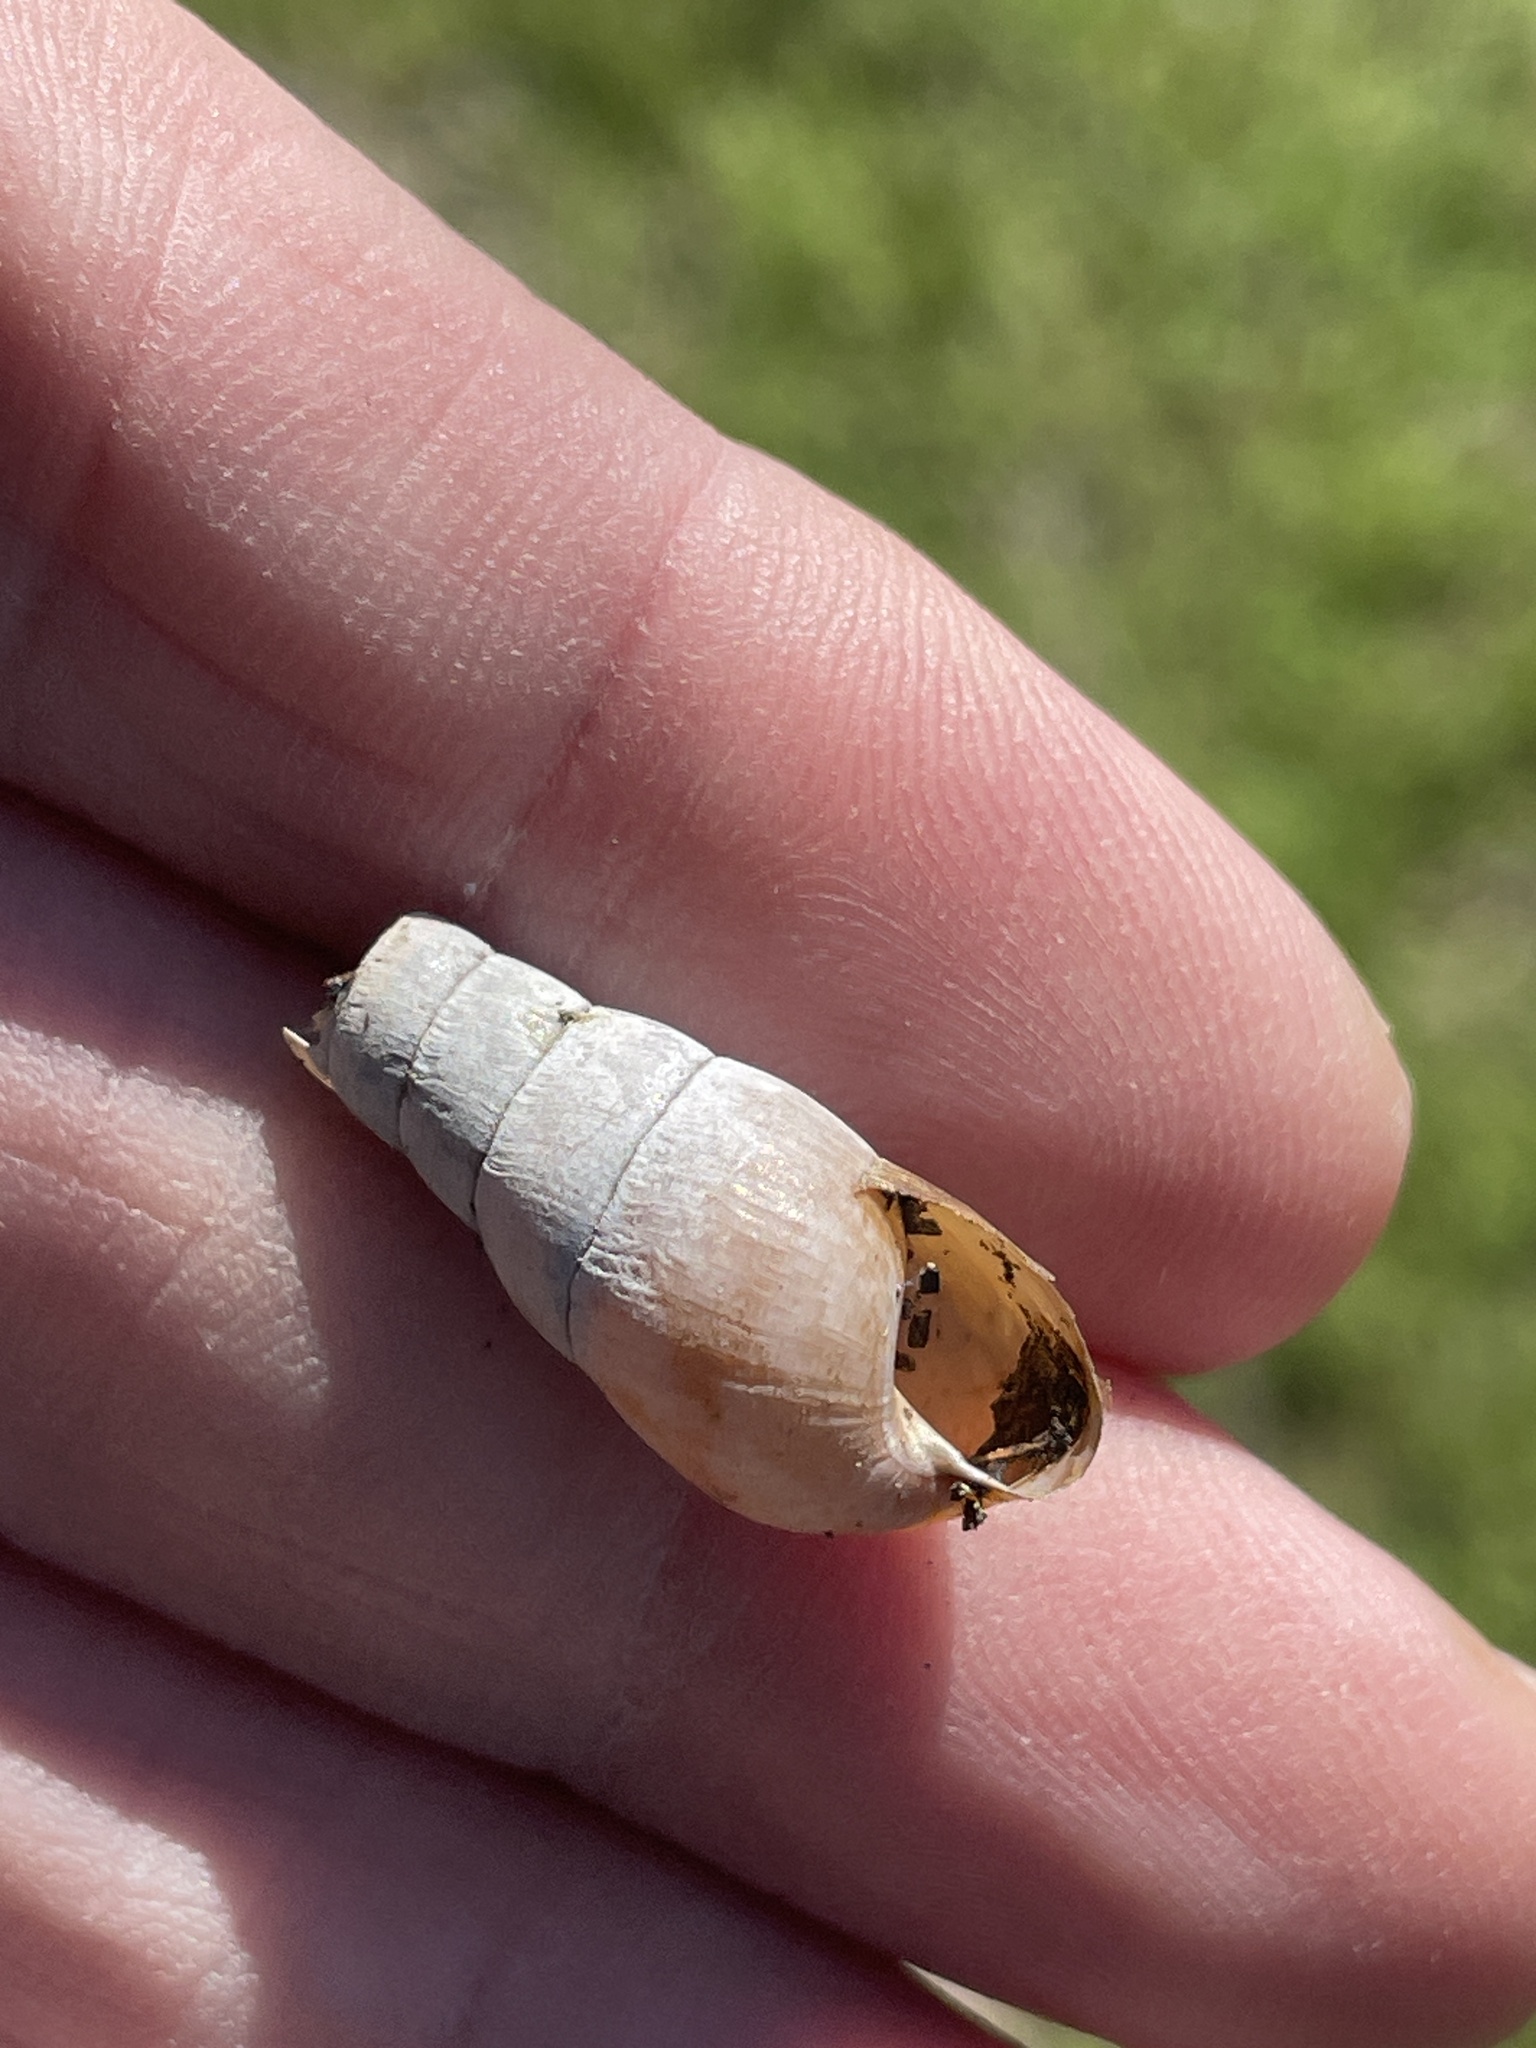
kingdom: Animalia
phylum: Mollusca
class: Gastropoda
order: Stylommatophora
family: Achatinidae
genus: Rumina
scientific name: Rumina decollata
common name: Decollate snail
